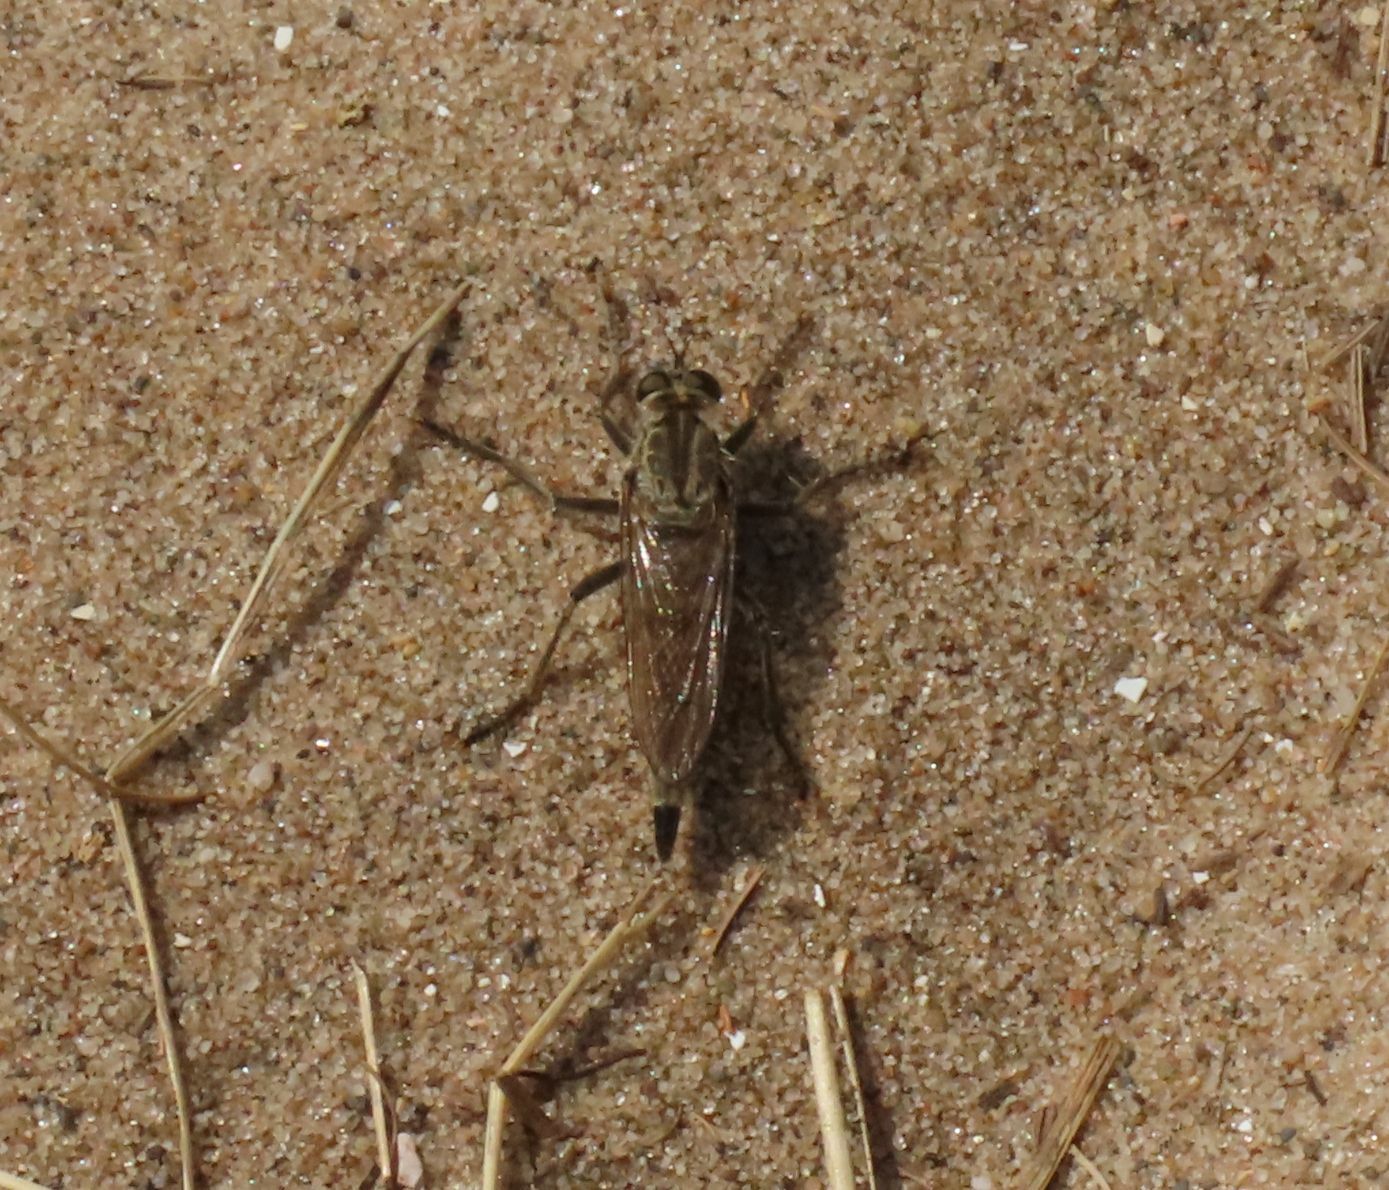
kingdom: Animalia
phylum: Arthropoda
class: Insecta
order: Diptera
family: Asilidae
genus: Philonicus
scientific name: Philonicus albiceps
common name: Dune robberfly
